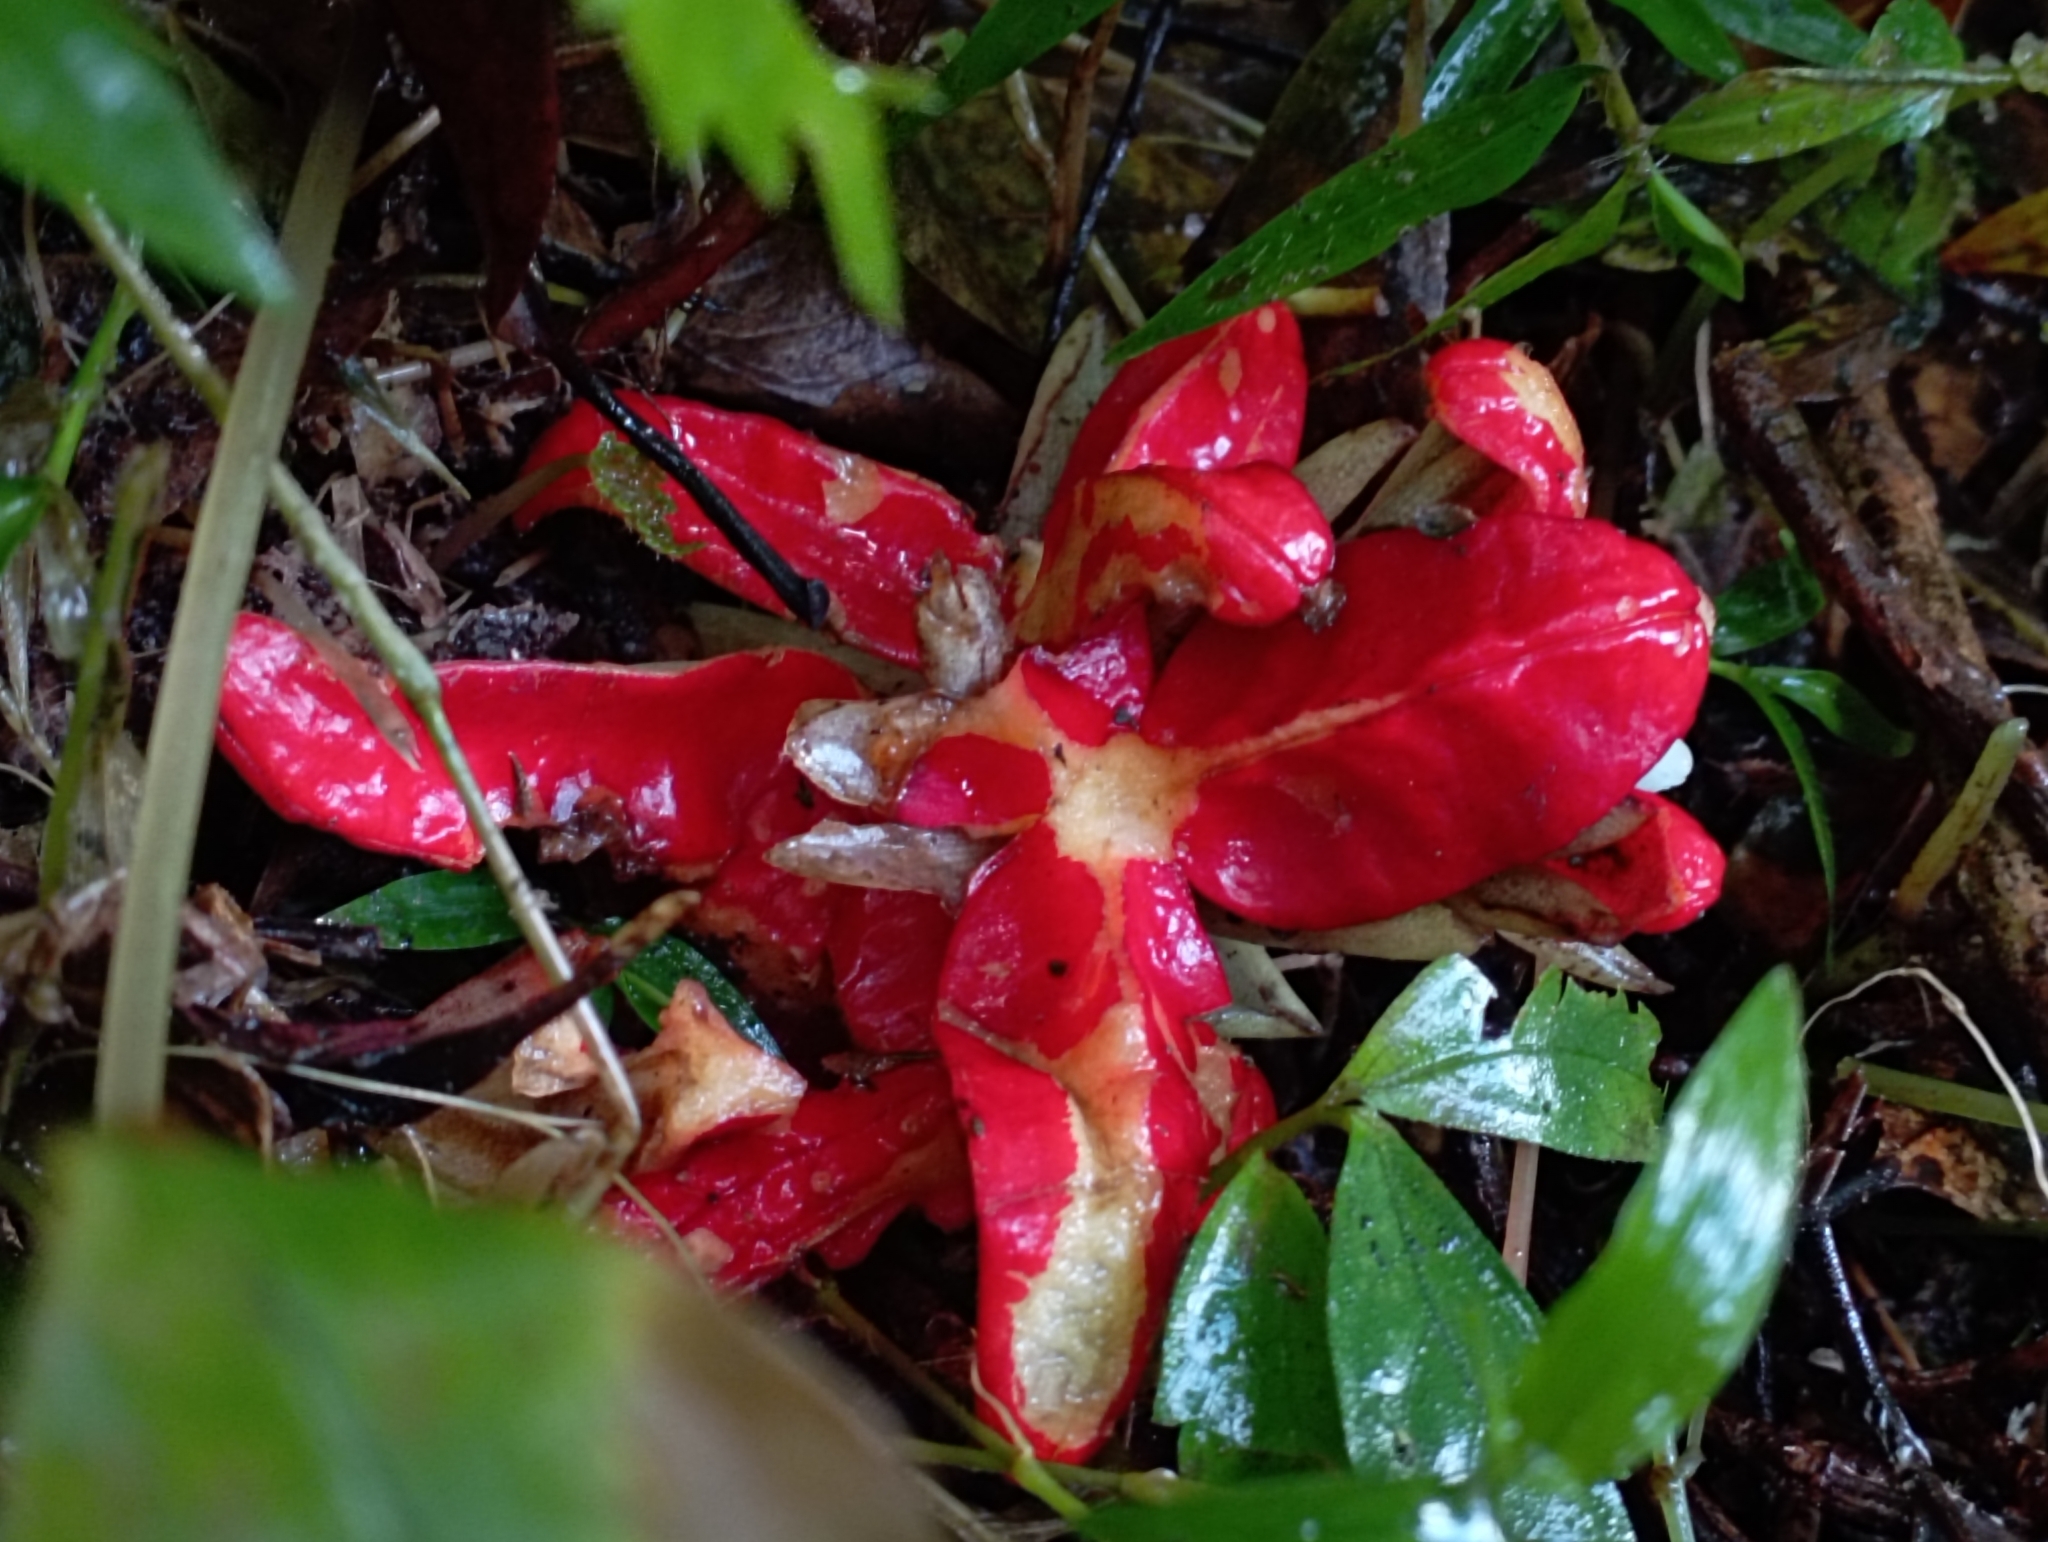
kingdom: Plantae
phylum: Tracheophyta
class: Liliopsida
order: Zingiberales
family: Zingiberaceae
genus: Zingiber
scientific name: Zingiber kawagoii
